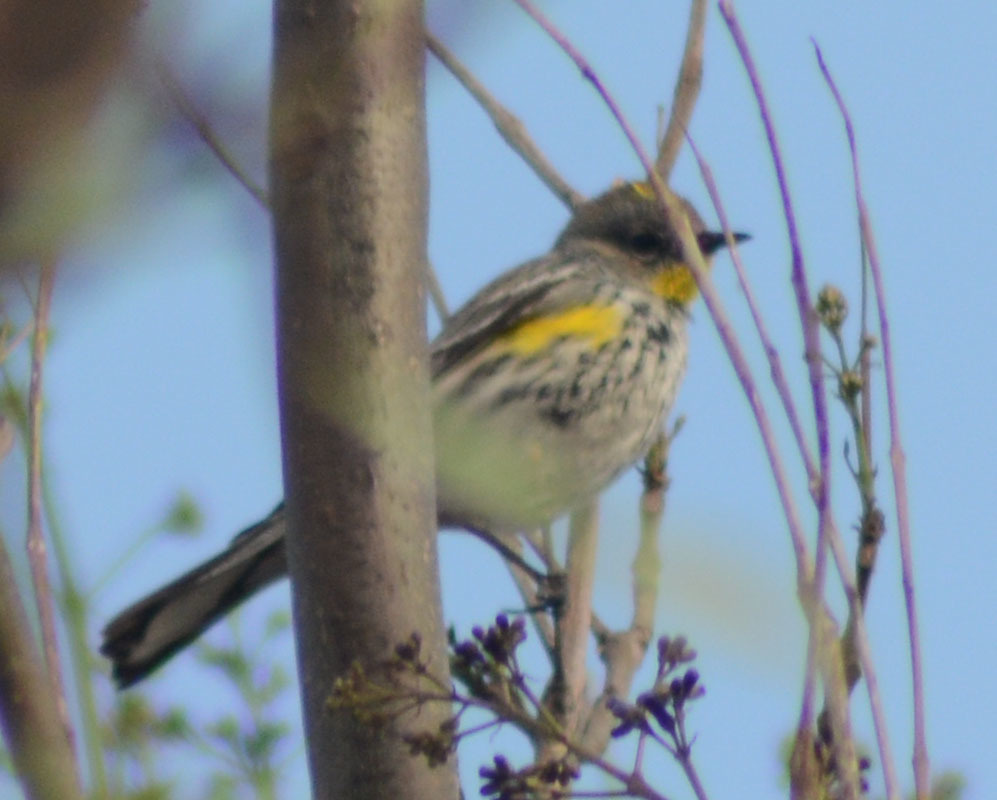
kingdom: Animalia
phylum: Chordata
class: Aves
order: Passeriformes
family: Parulidae
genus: Setophaga
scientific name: Setophaga auduboni
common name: Audubon's warbler
